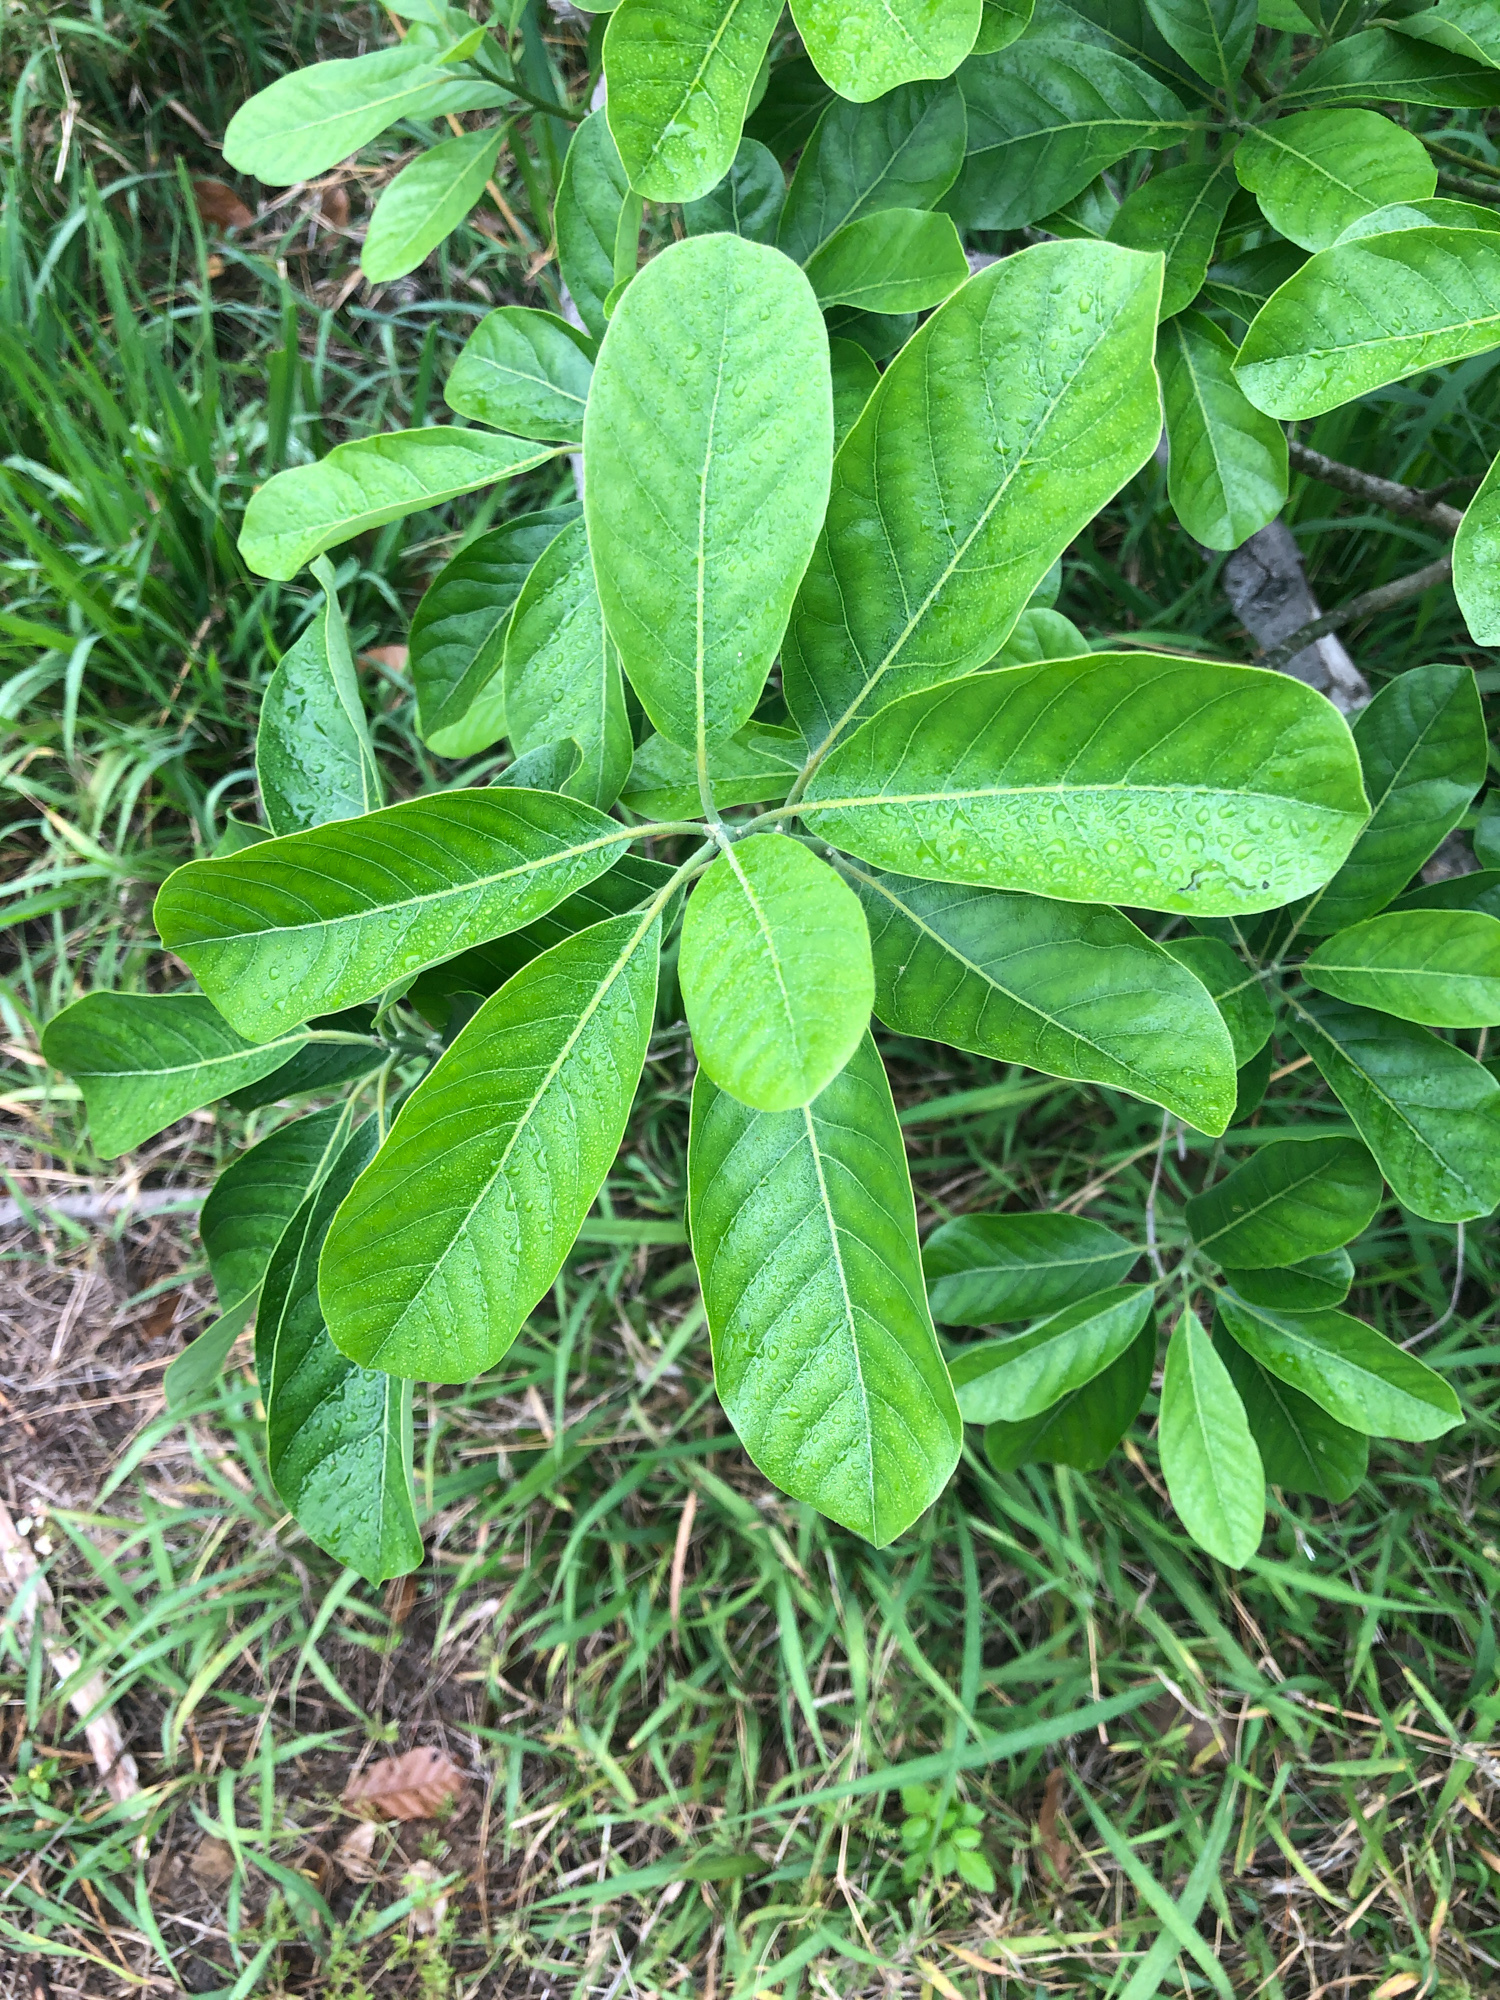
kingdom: Plantae
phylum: Tracheophyta
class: Magnoliopsida
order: Laurales
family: Lauraceae
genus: Litsea
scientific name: Litsea glutinosa
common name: Indian-laurel
